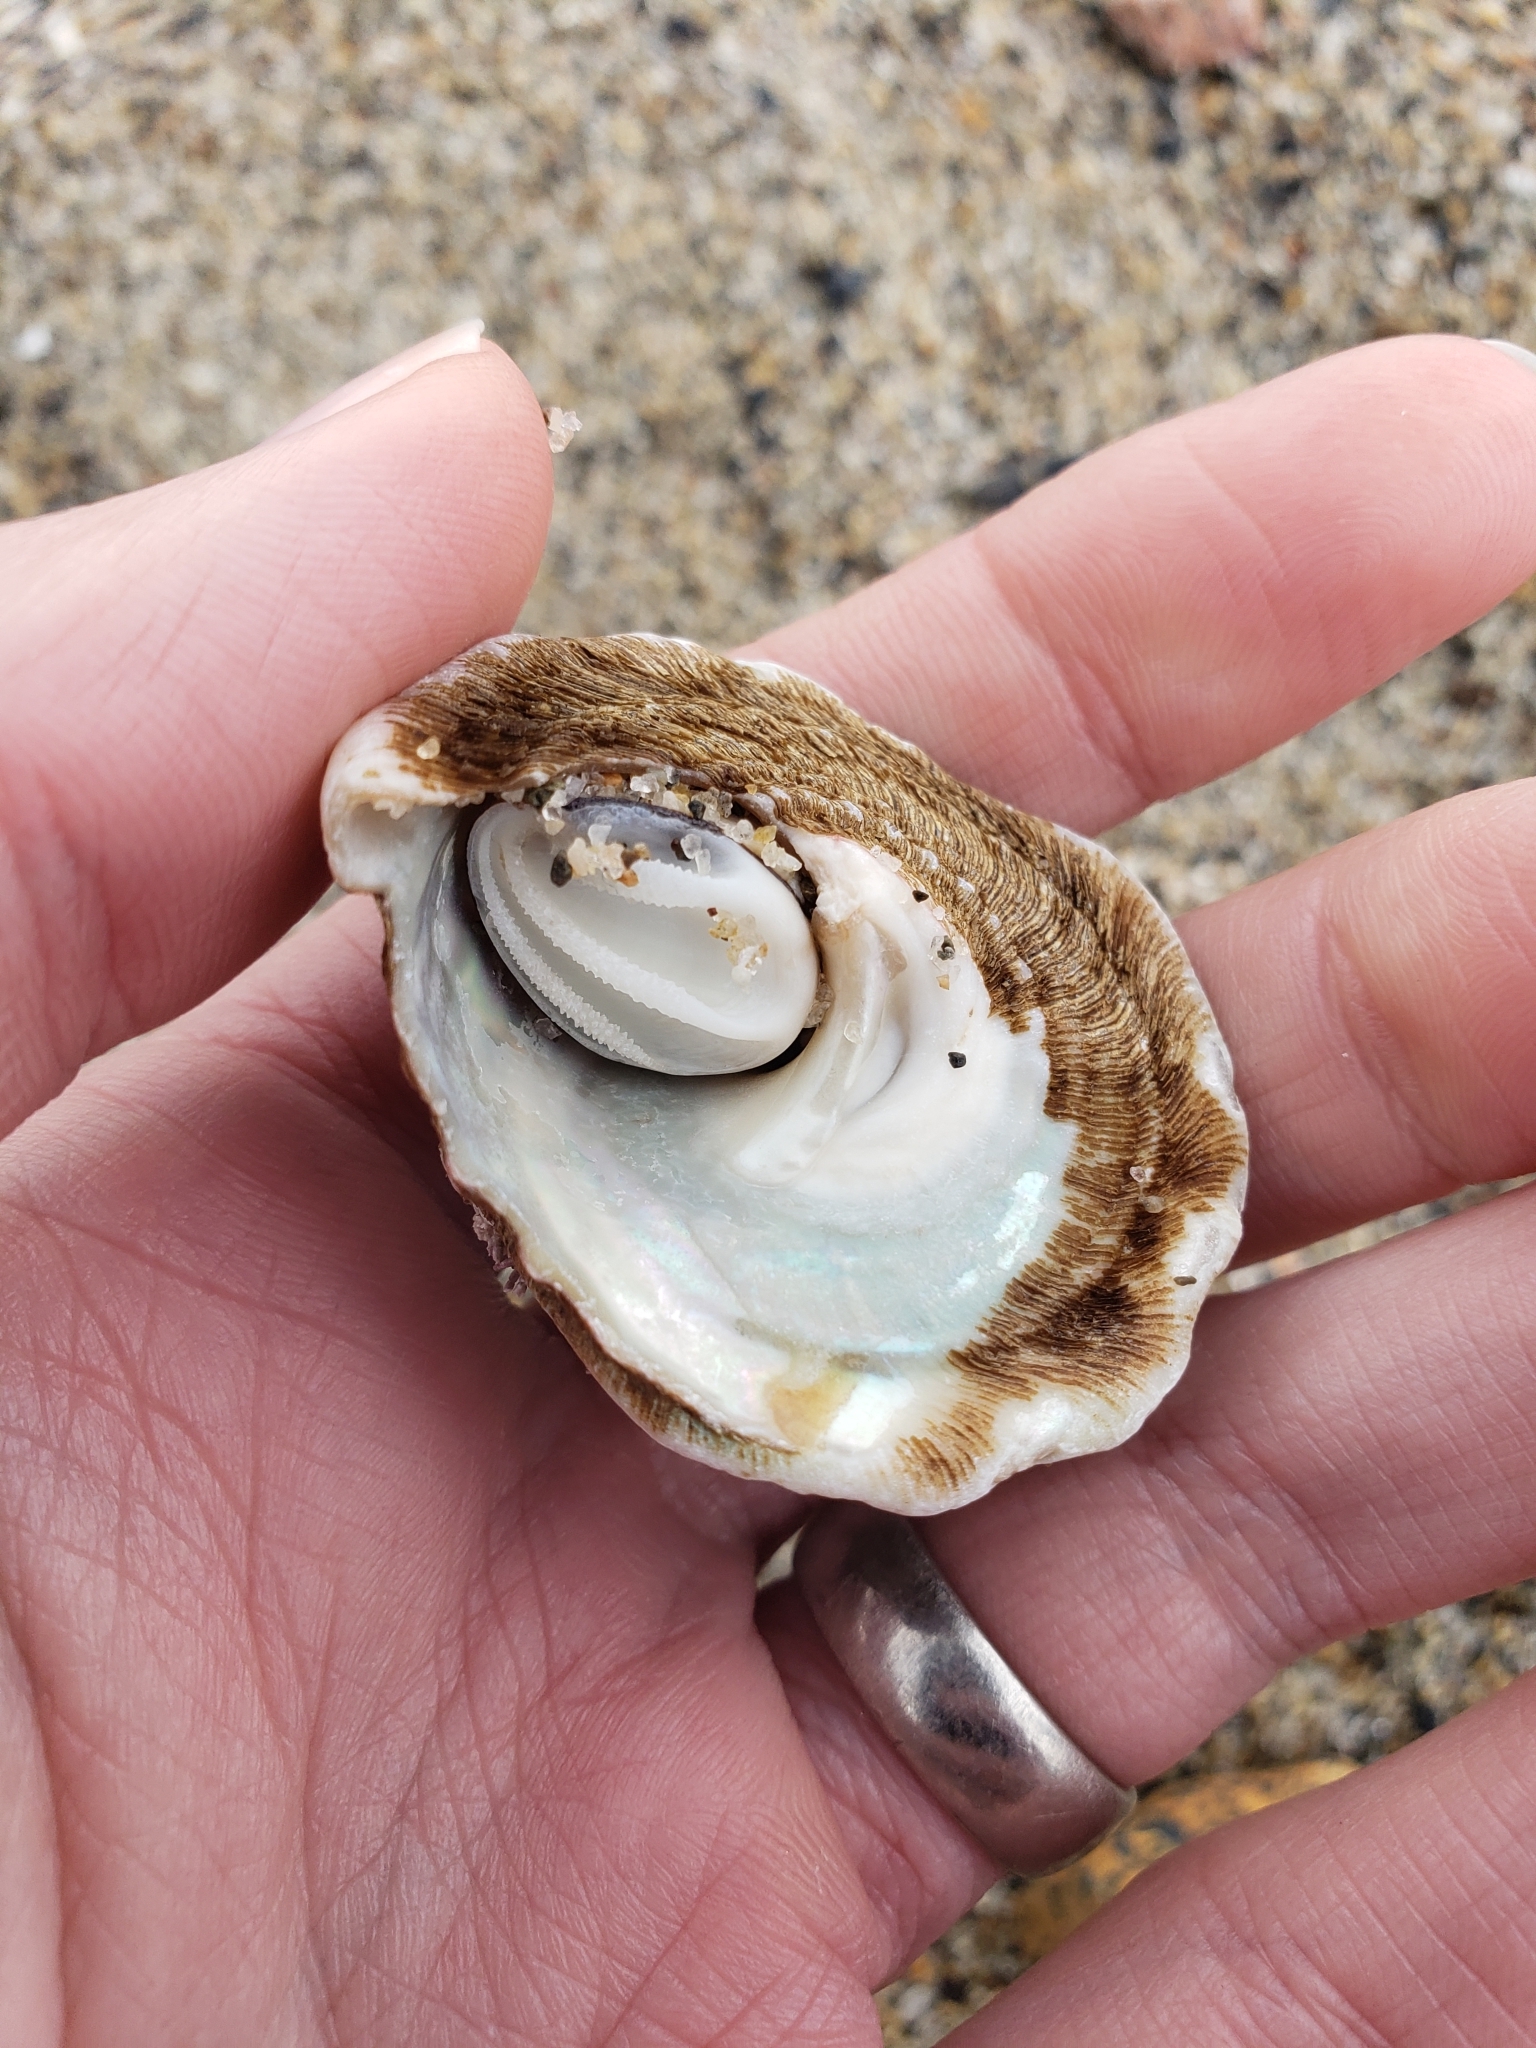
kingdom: Animalia
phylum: Mollusca
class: Gastropoda
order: Trochida
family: Turbinidae
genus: Megastraea
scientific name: Megastraea undosa
